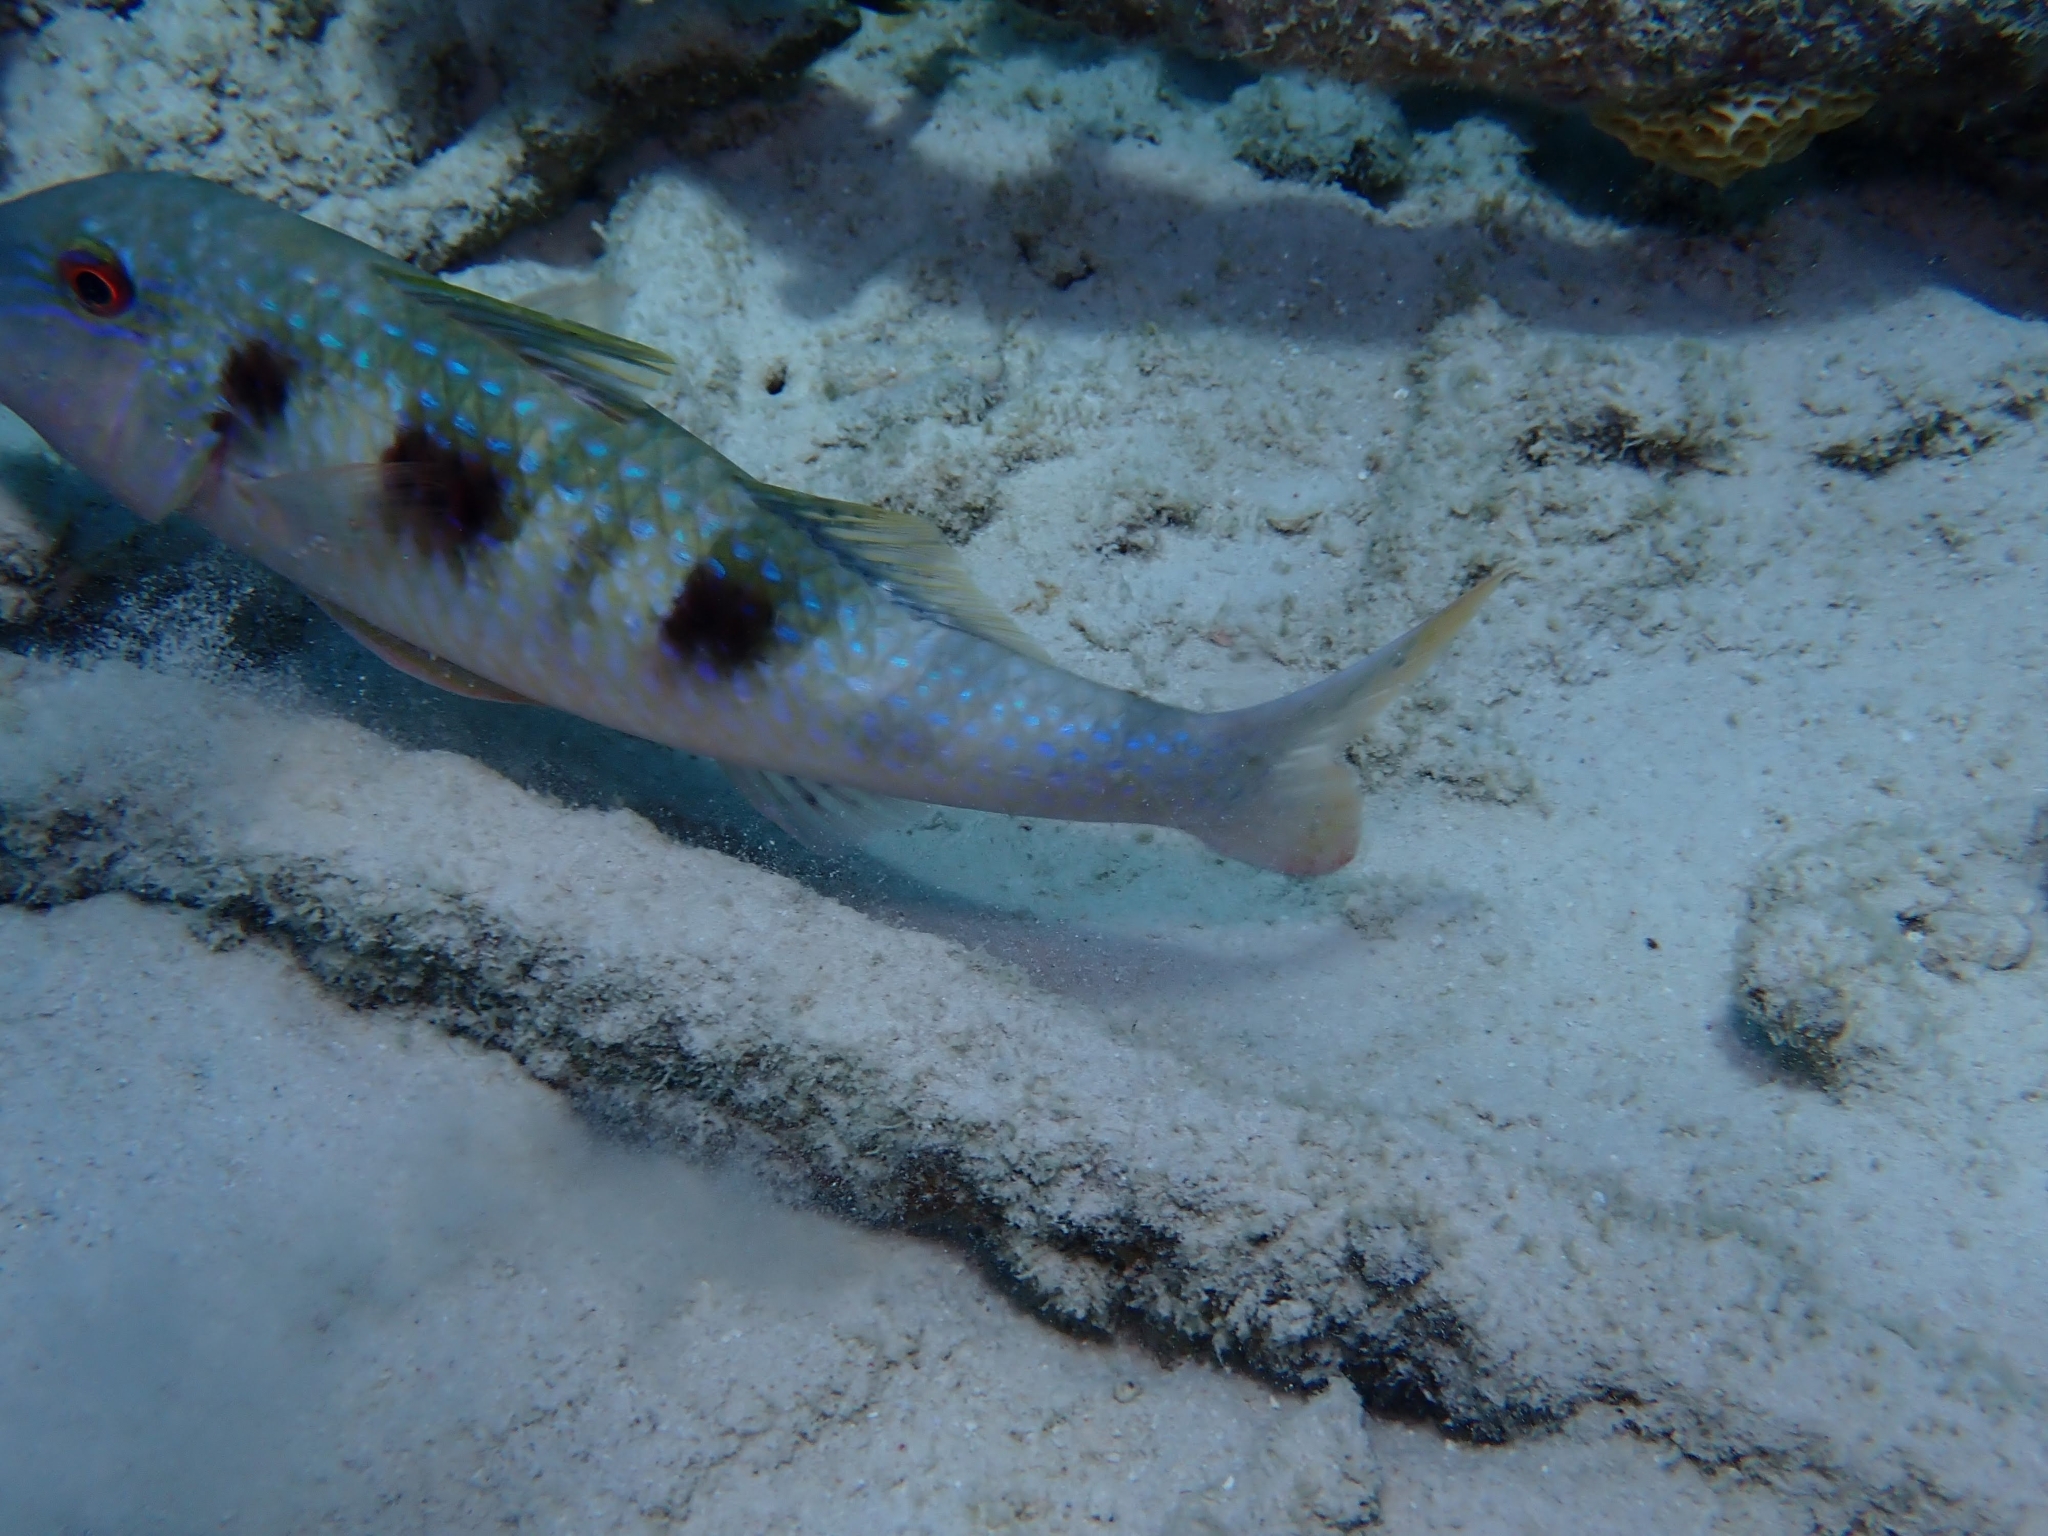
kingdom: Animalia
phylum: Chordata
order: Perciformes
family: Mullidae
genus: Pseudupeneus
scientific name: Pseudupeneus maculatus
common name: Spotted goatfish
